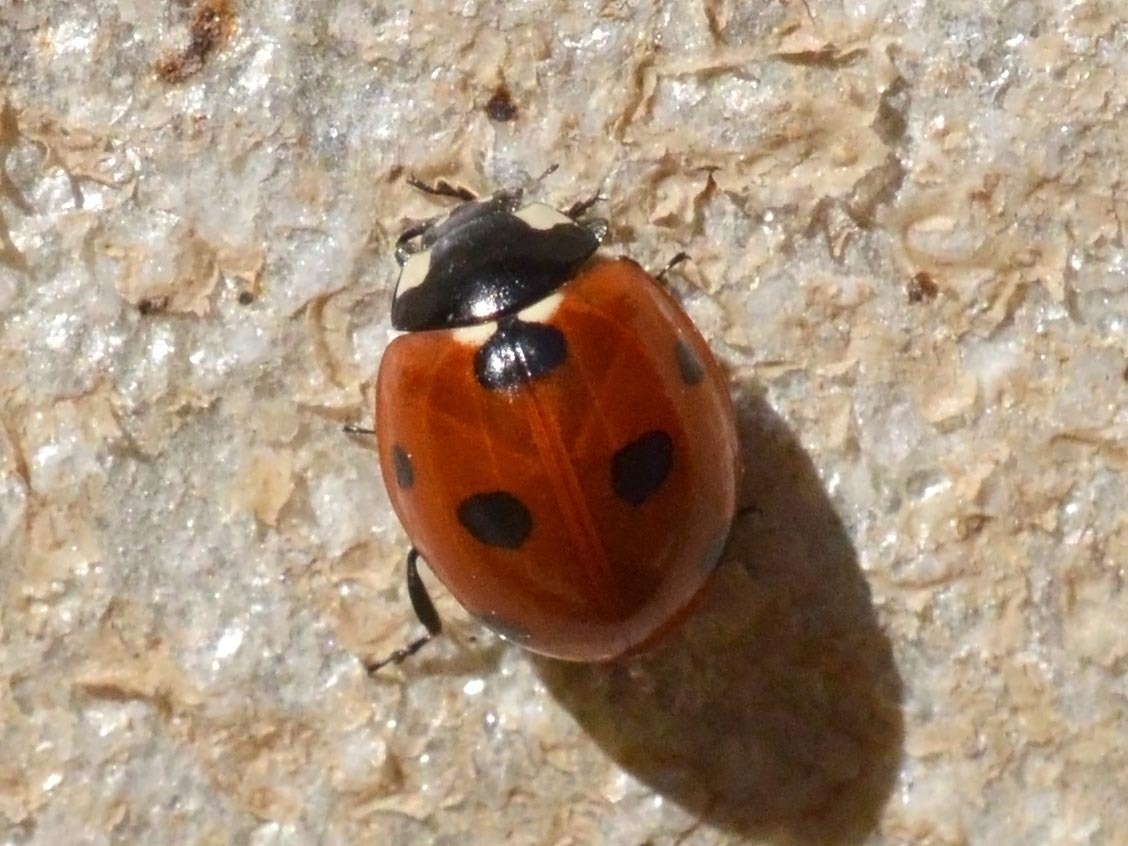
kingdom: Animalia
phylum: Arthropoda
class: Insecta
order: Coleoptera
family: Coccinellidae
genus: Coccinella
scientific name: Coccinella septempunctata
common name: Sevenspotted lady beetle
